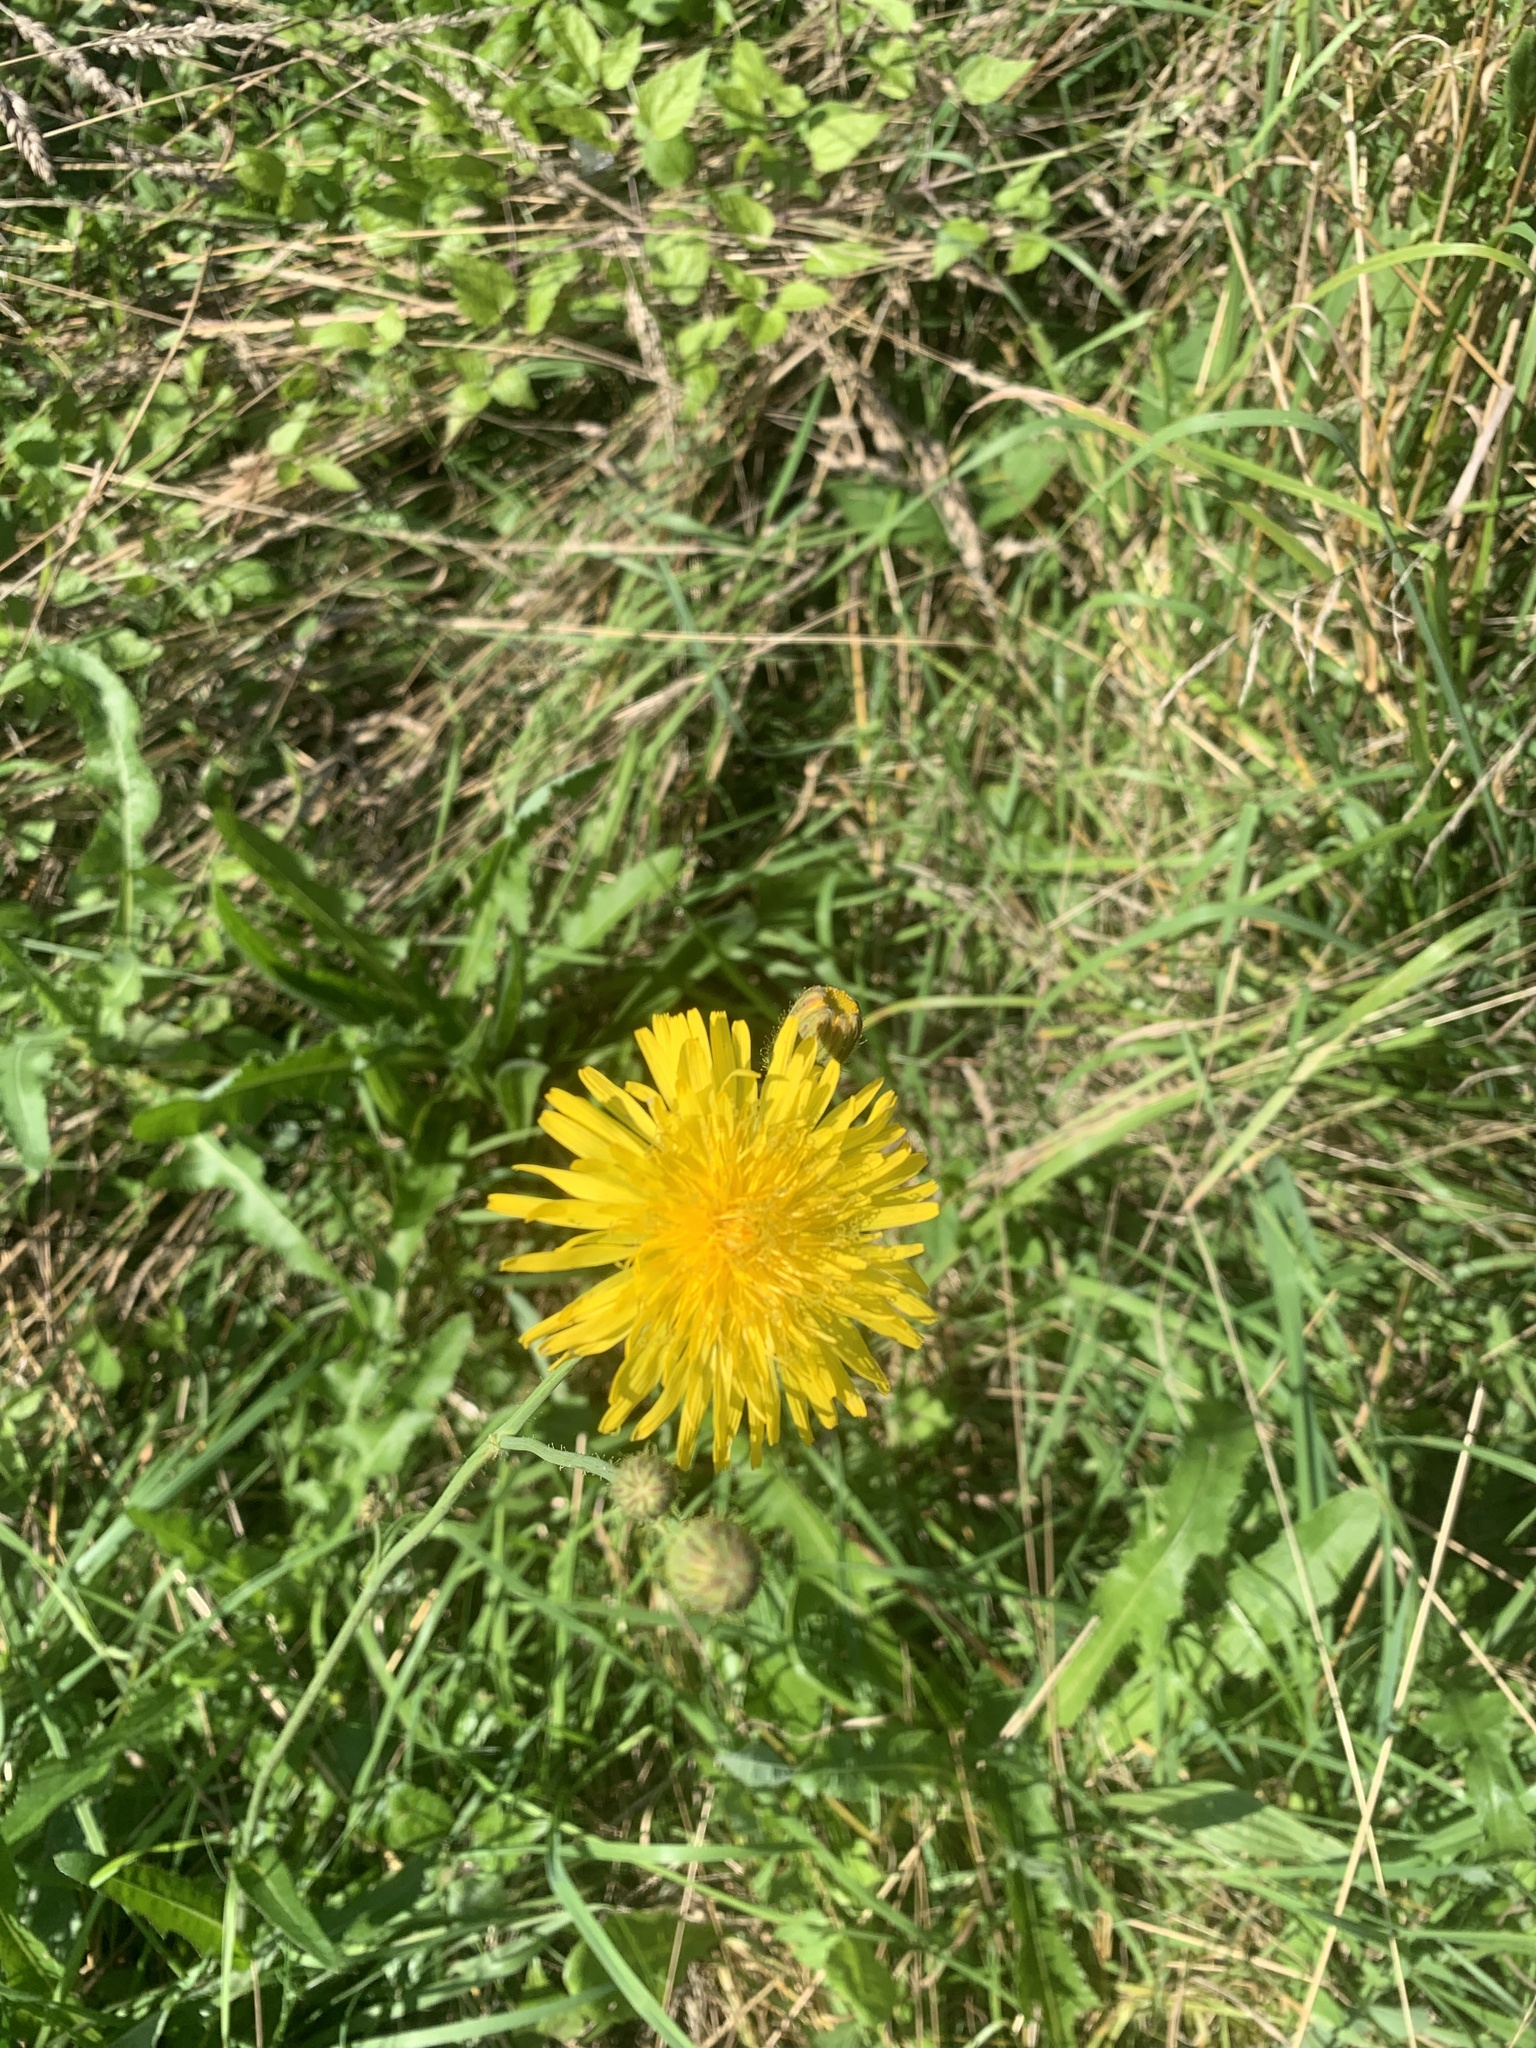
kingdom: Plantae
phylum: Tracheophyta
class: Magnoliopsida
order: Asterales
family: Asteraceae
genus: Sonchus
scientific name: Sonchus arvensis
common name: Perennial sow-thistle
